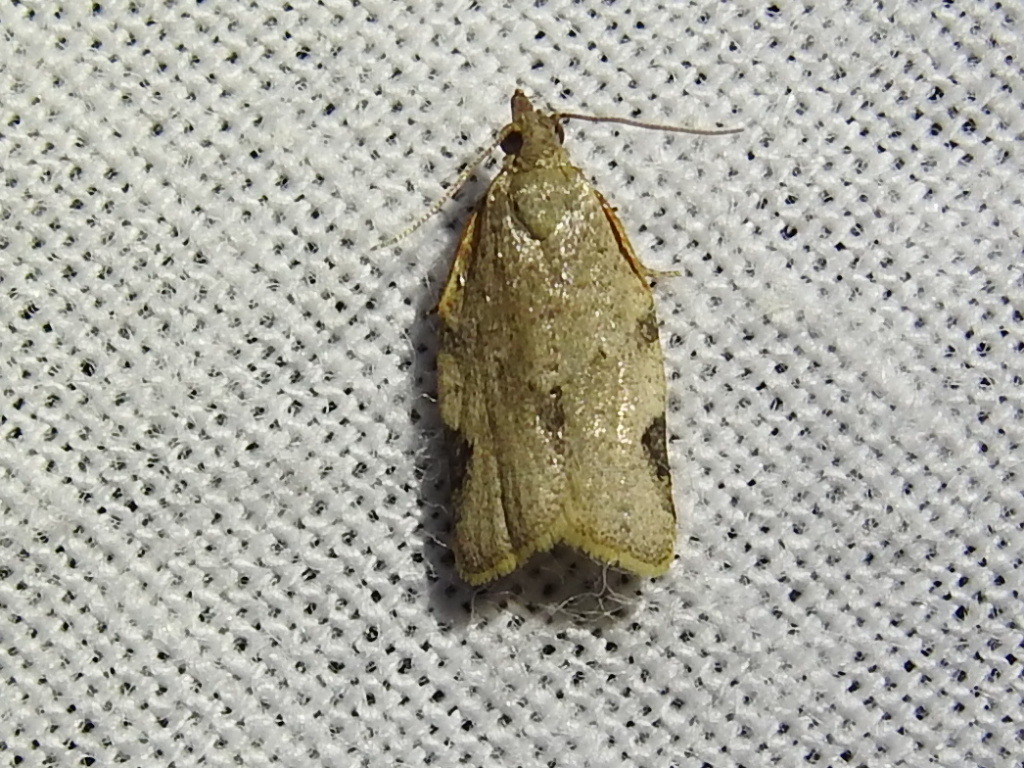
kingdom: Animalia
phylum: Arthropoda
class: Insecta
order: Lepidoptera
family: Tortricidae
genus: Clepsis
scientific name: Clepsis virescana
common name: Greenish apple moth
